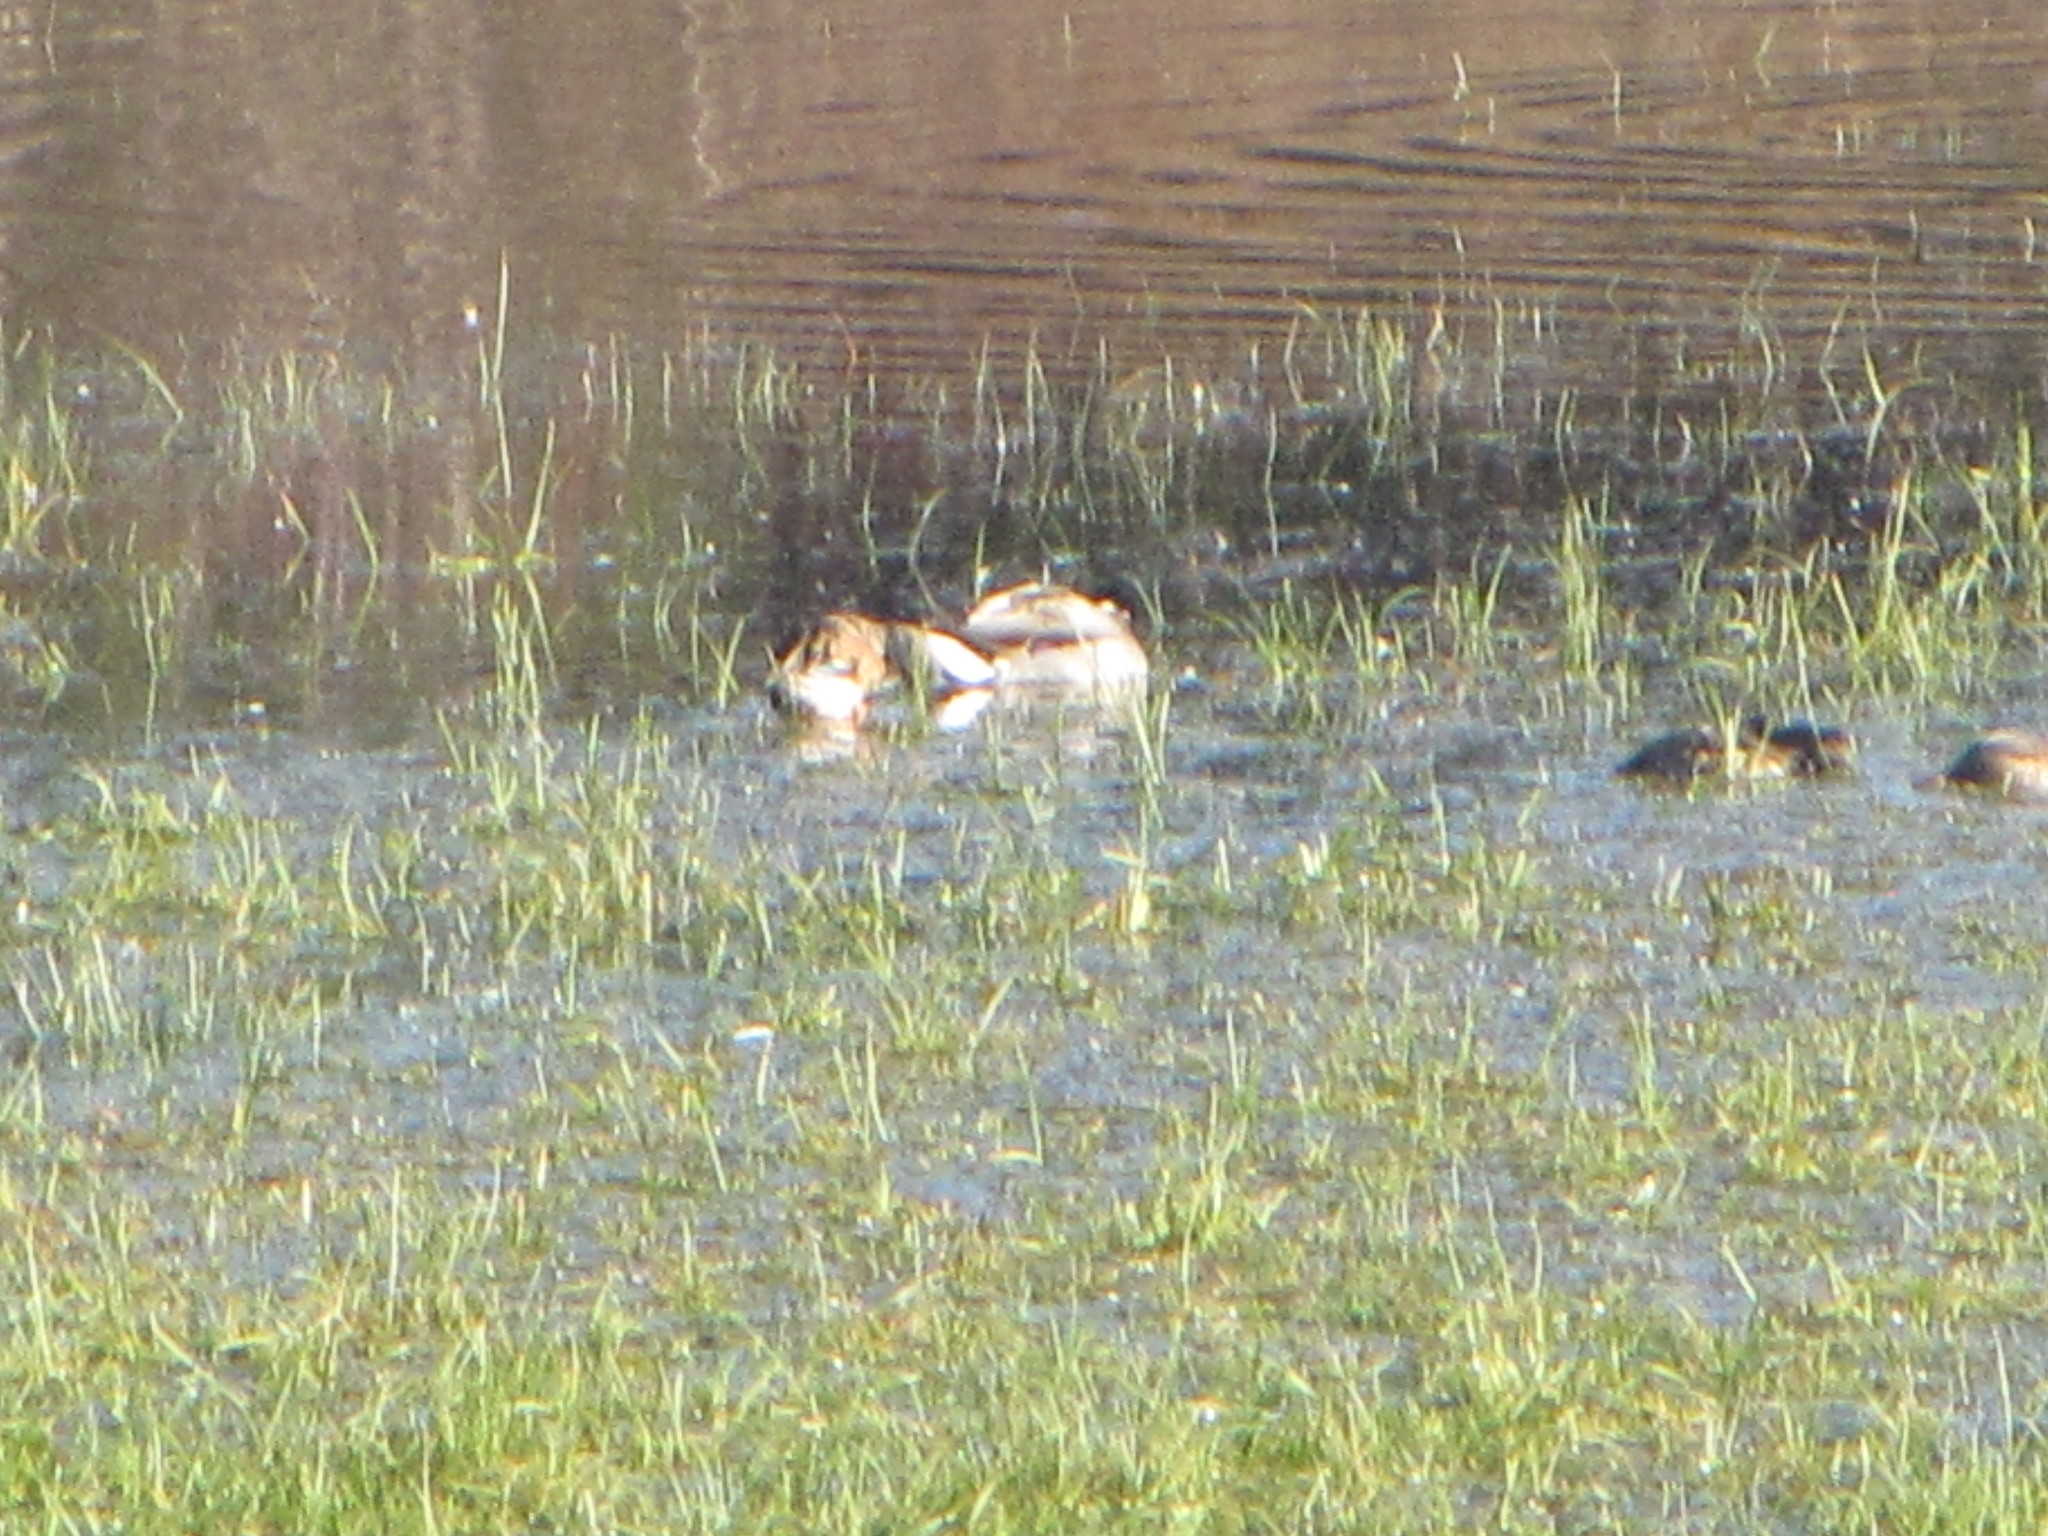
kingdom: Animalia
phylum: Chordata
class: Aves
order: Anseriformes
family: Anatidae
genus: Anas
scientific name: Anas platyrhynchos
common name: Mallard
